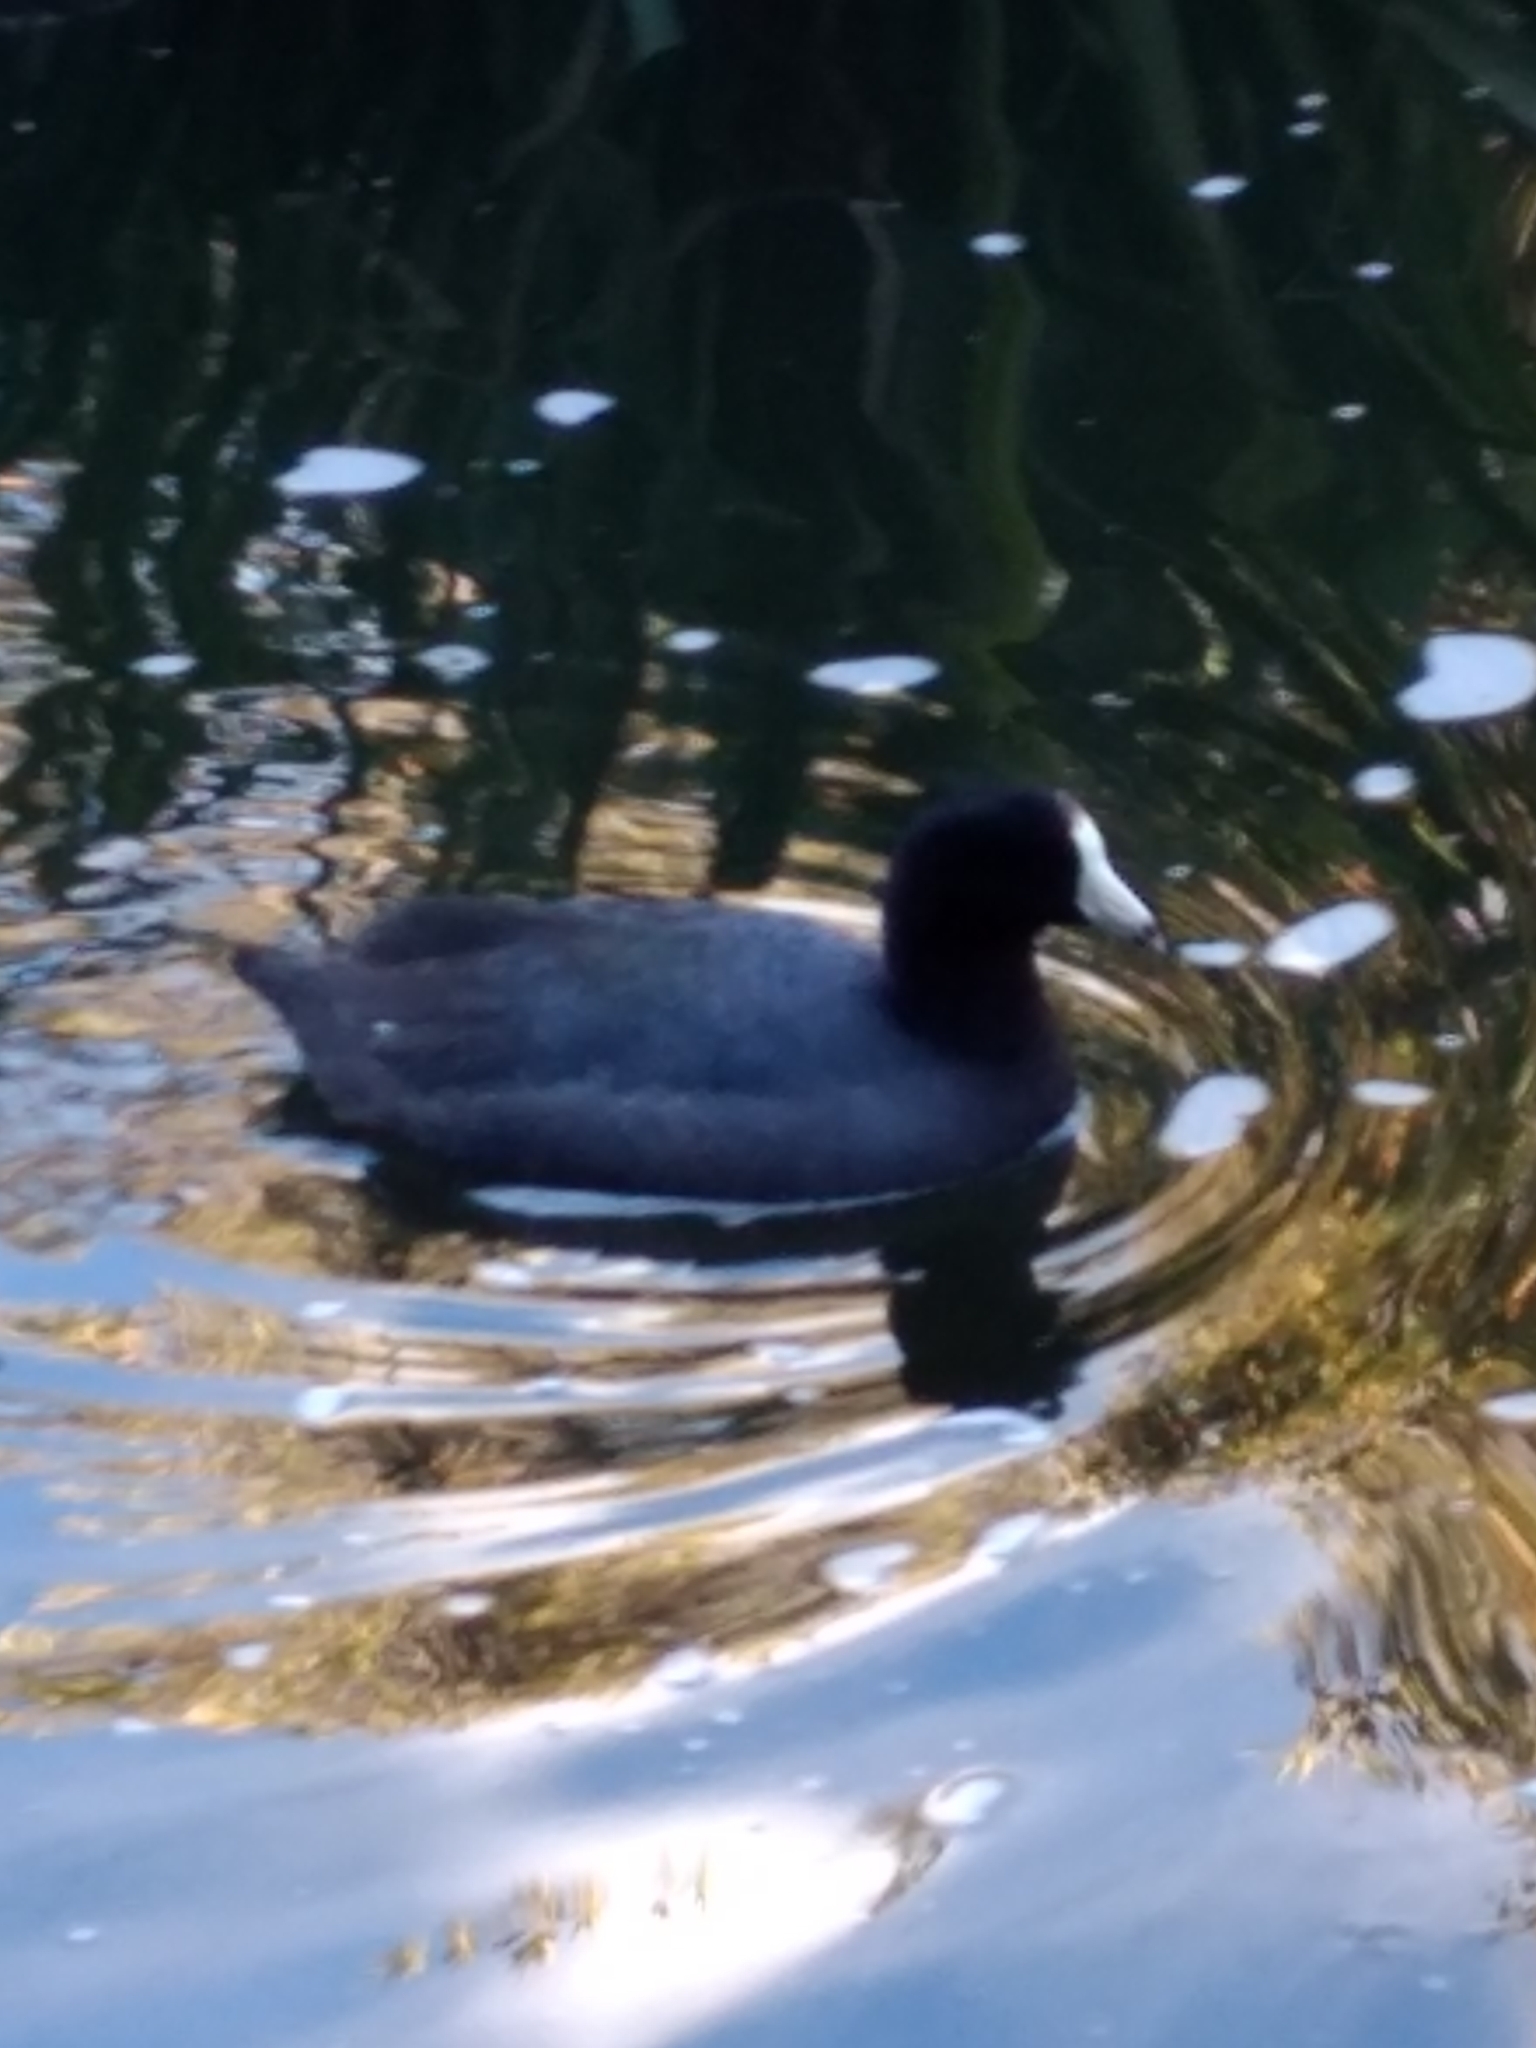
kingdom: Animalia
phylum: Chordata
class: Aves
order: Gruiformes
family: Rallidae
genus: Fulica
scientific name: Fulica americana
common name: American coot
